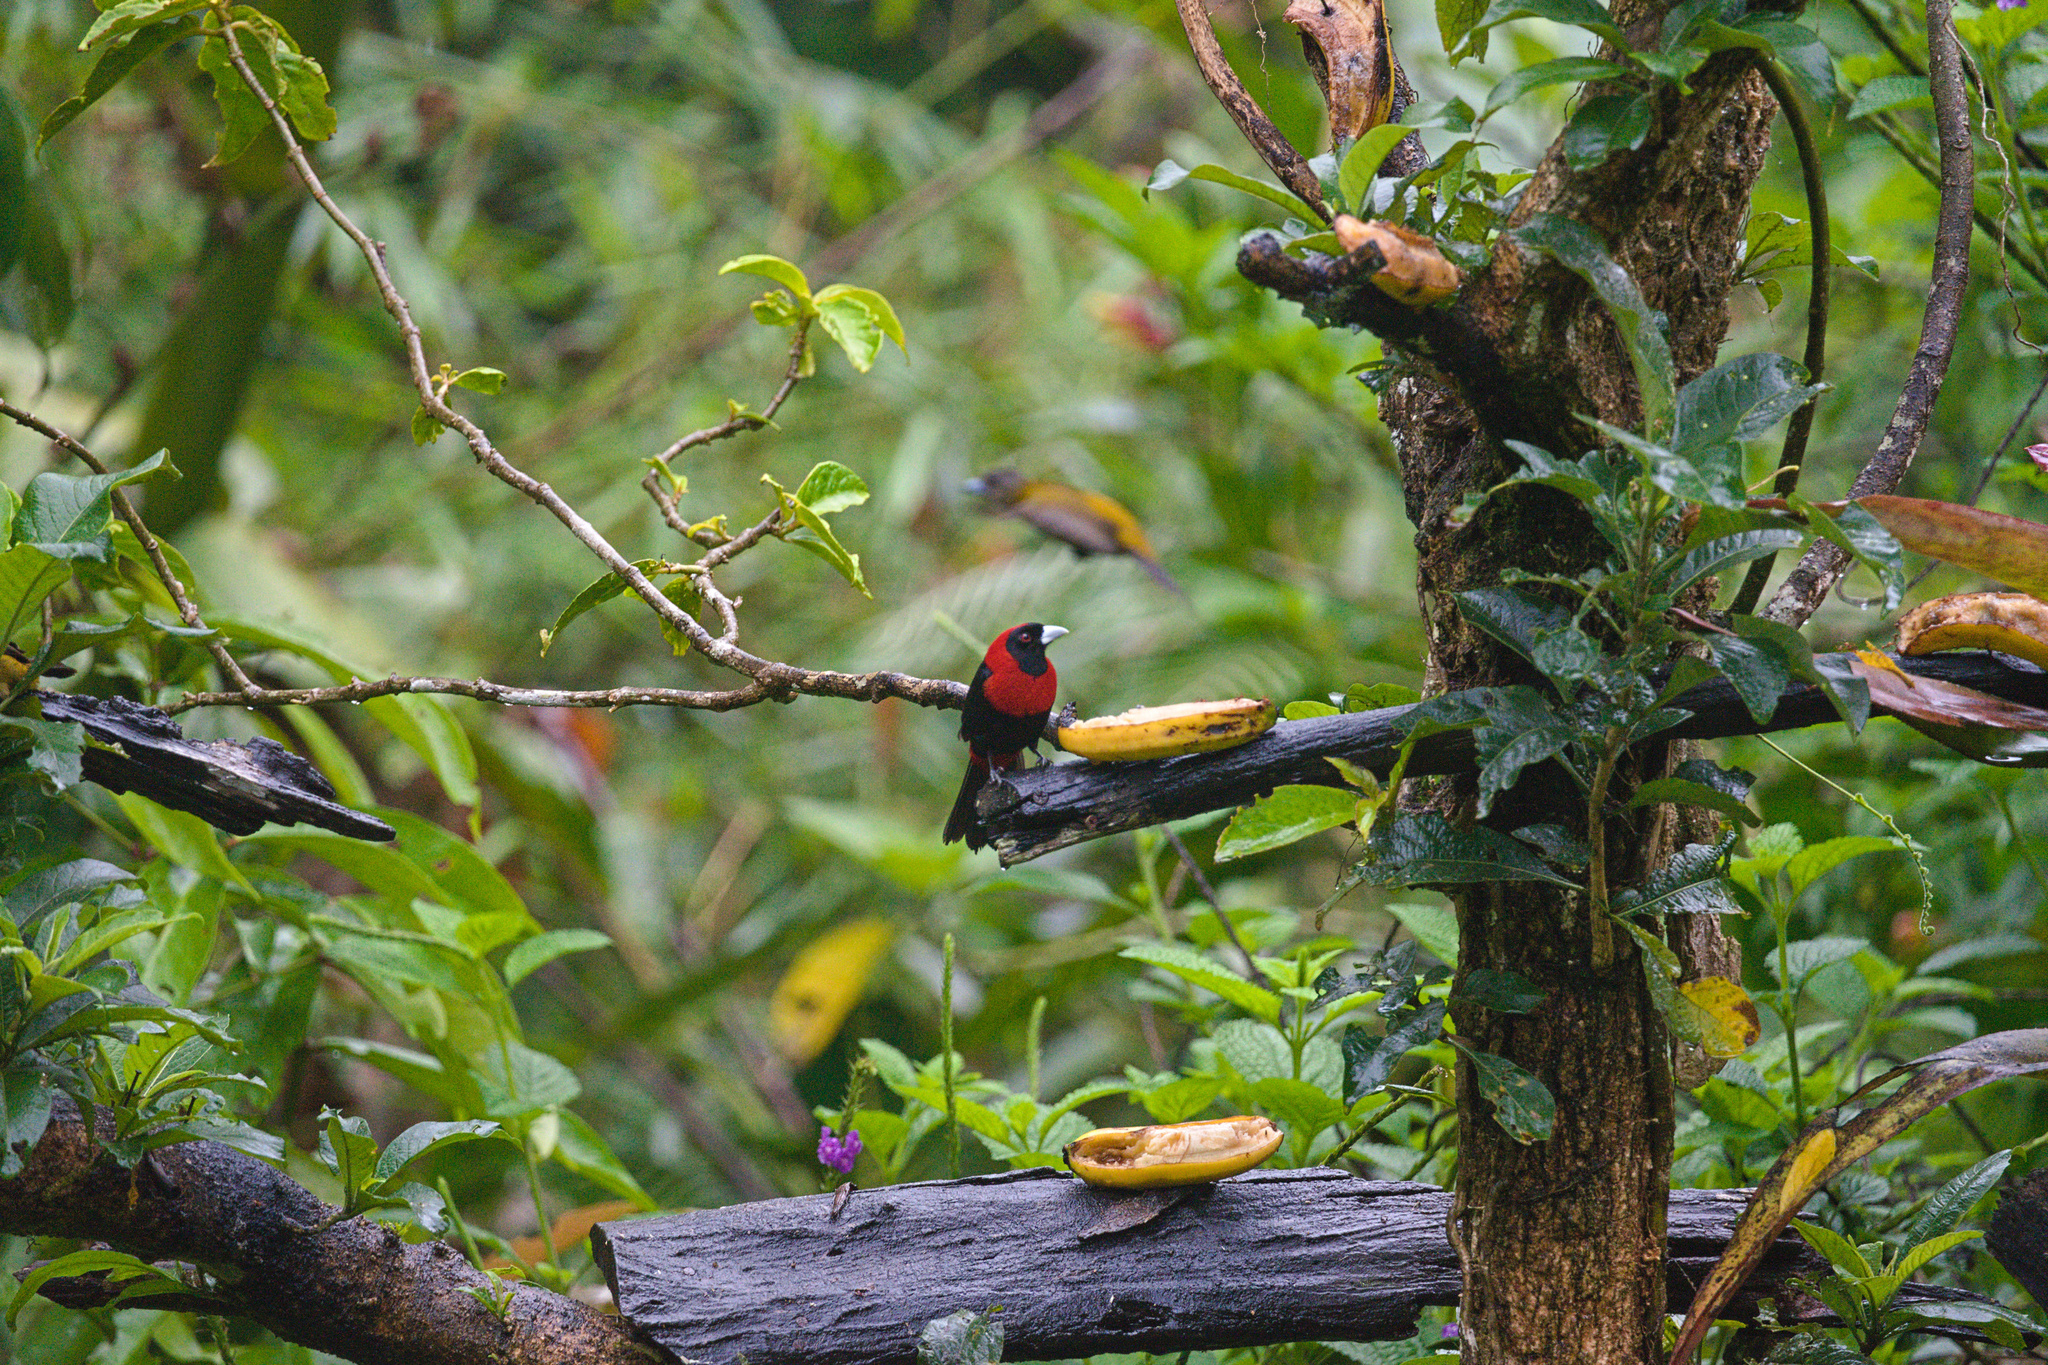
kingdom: Animalia
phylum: Chordata
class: Aves
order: Passeriformes
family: Thraupidae
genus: Ramphocelus
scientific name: Ramphocelus sanguinolentus
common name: Crimson-collared tanager
